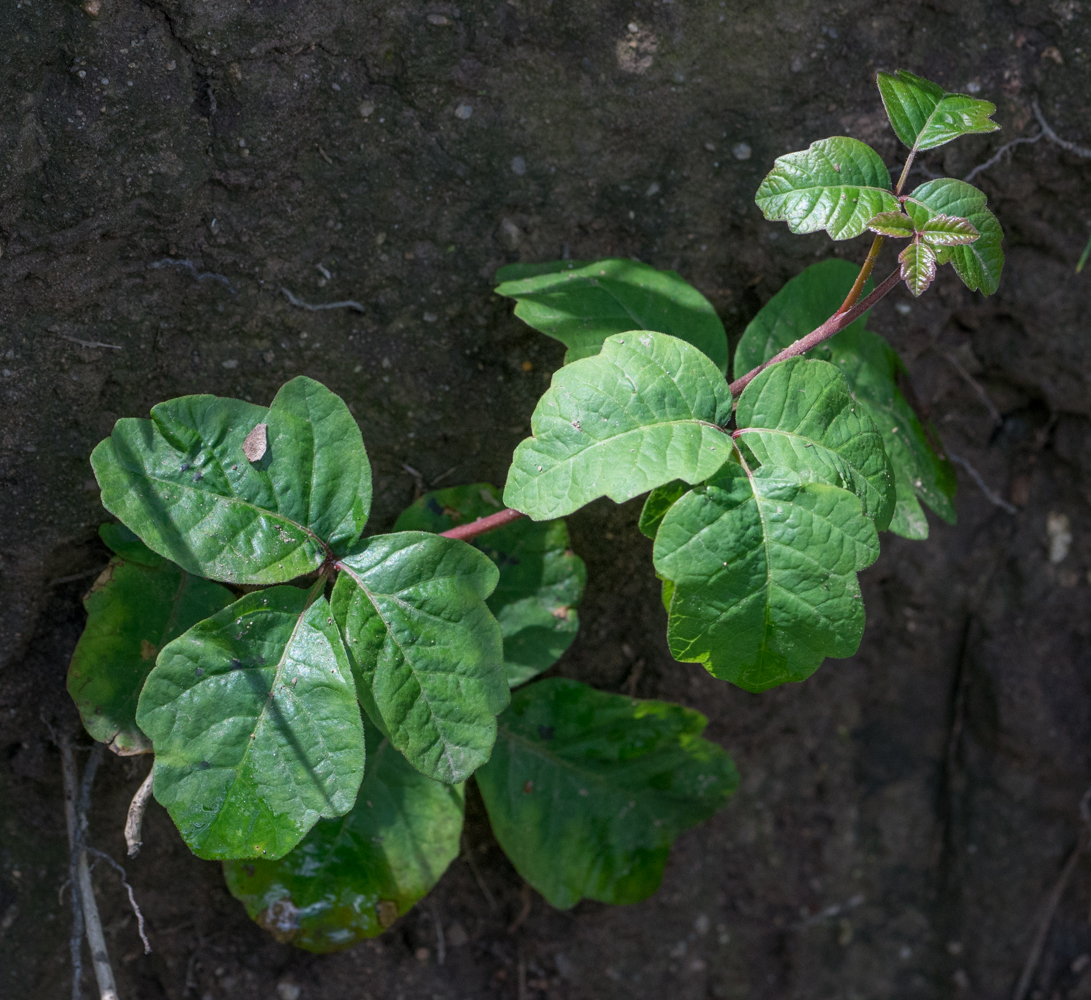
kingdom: Plantae
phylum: Tracheophyta
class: Magnoliopsida
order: Sapindales
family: Anacardiaceae
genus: Toxicodendron
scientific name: Toxicodendron diversilobum
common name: Pacific poison-oak
